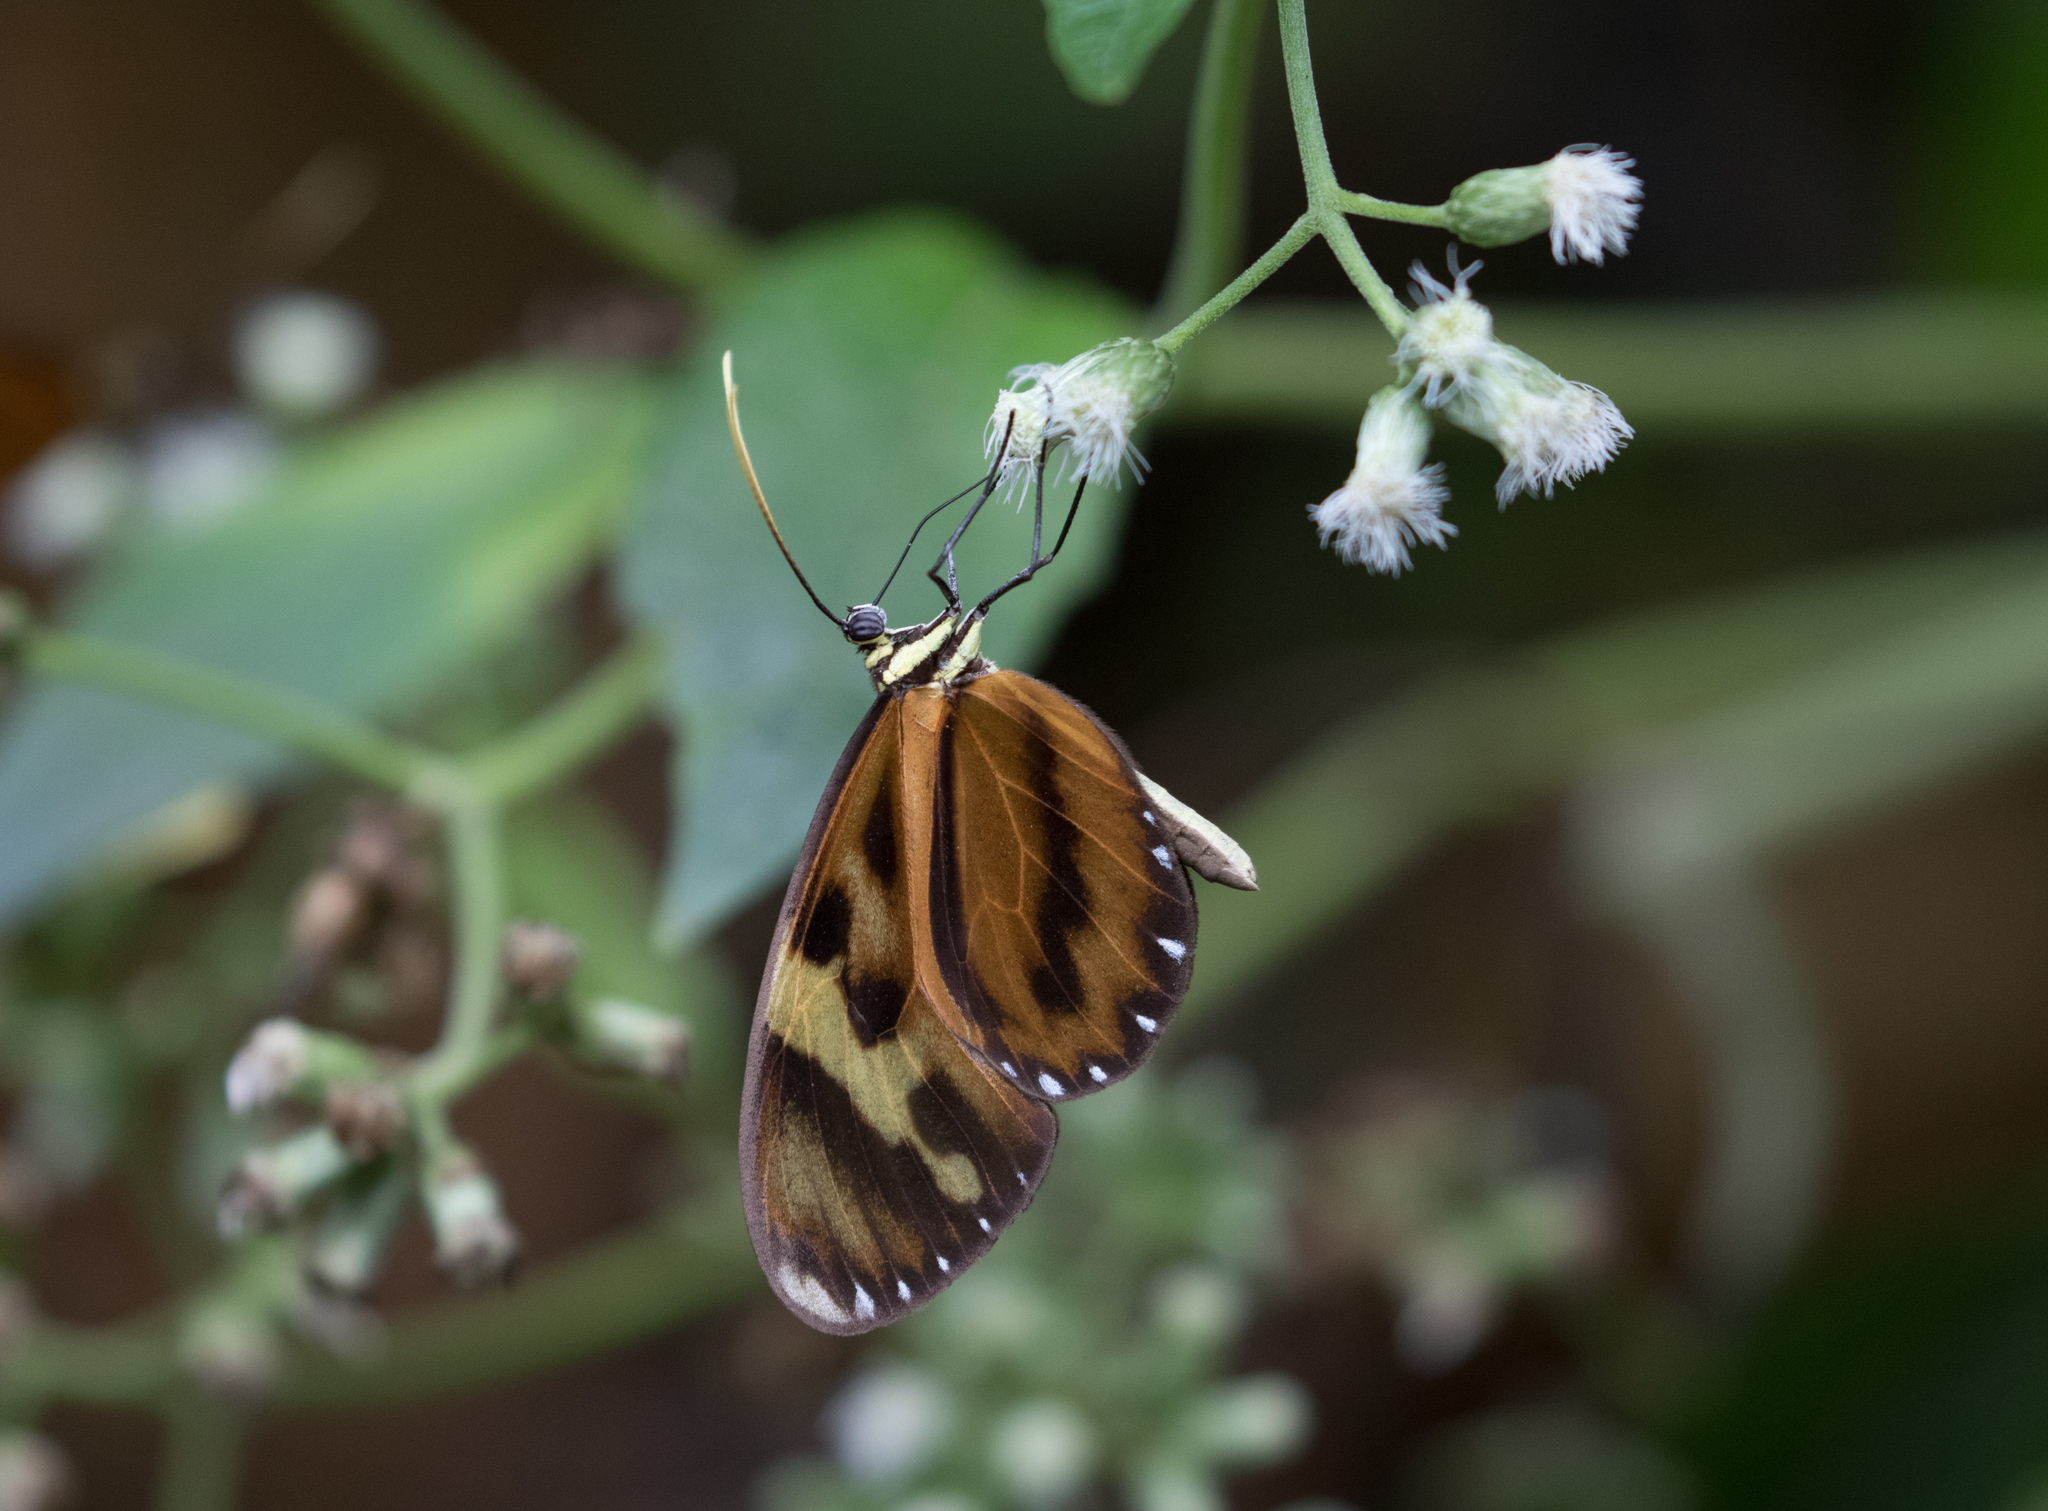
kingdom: Animalia
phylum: Arthropoda
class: Insecta
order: Lepidoptera
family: Nymphalidae
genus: Ceratinia
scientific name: Ceratinia tutia
